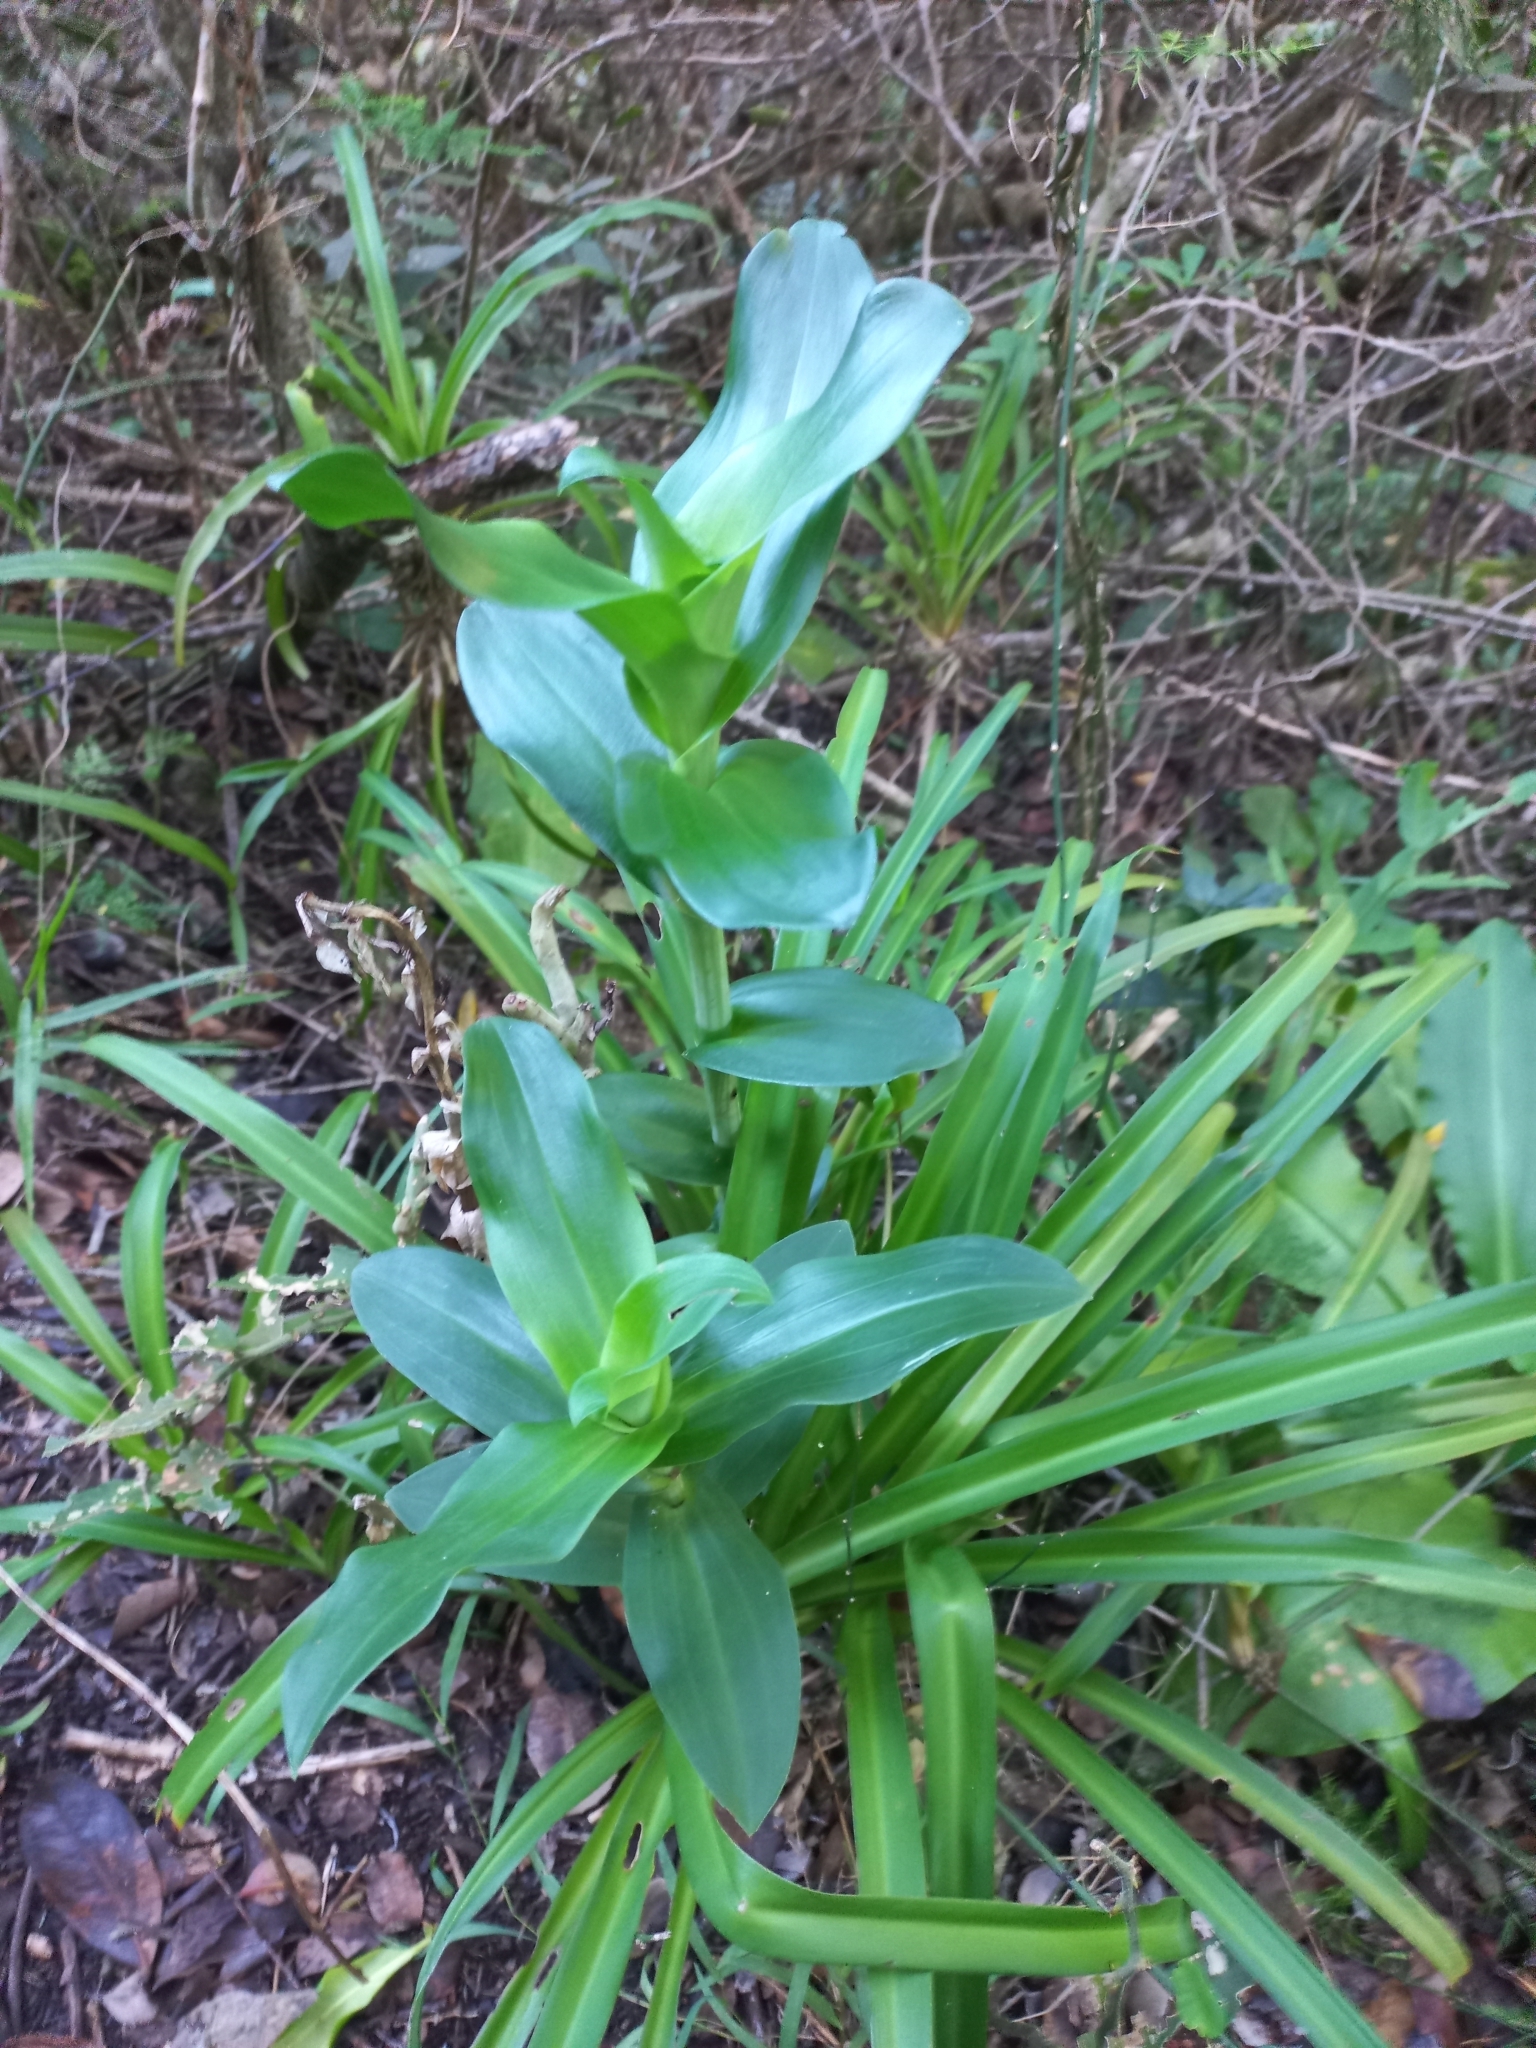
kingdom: Plantae
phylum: Tracheophyta
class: Liliopsida
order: Asparagales
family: Orchidaceae
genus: Bonatea
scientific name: Bonatea speciosa
